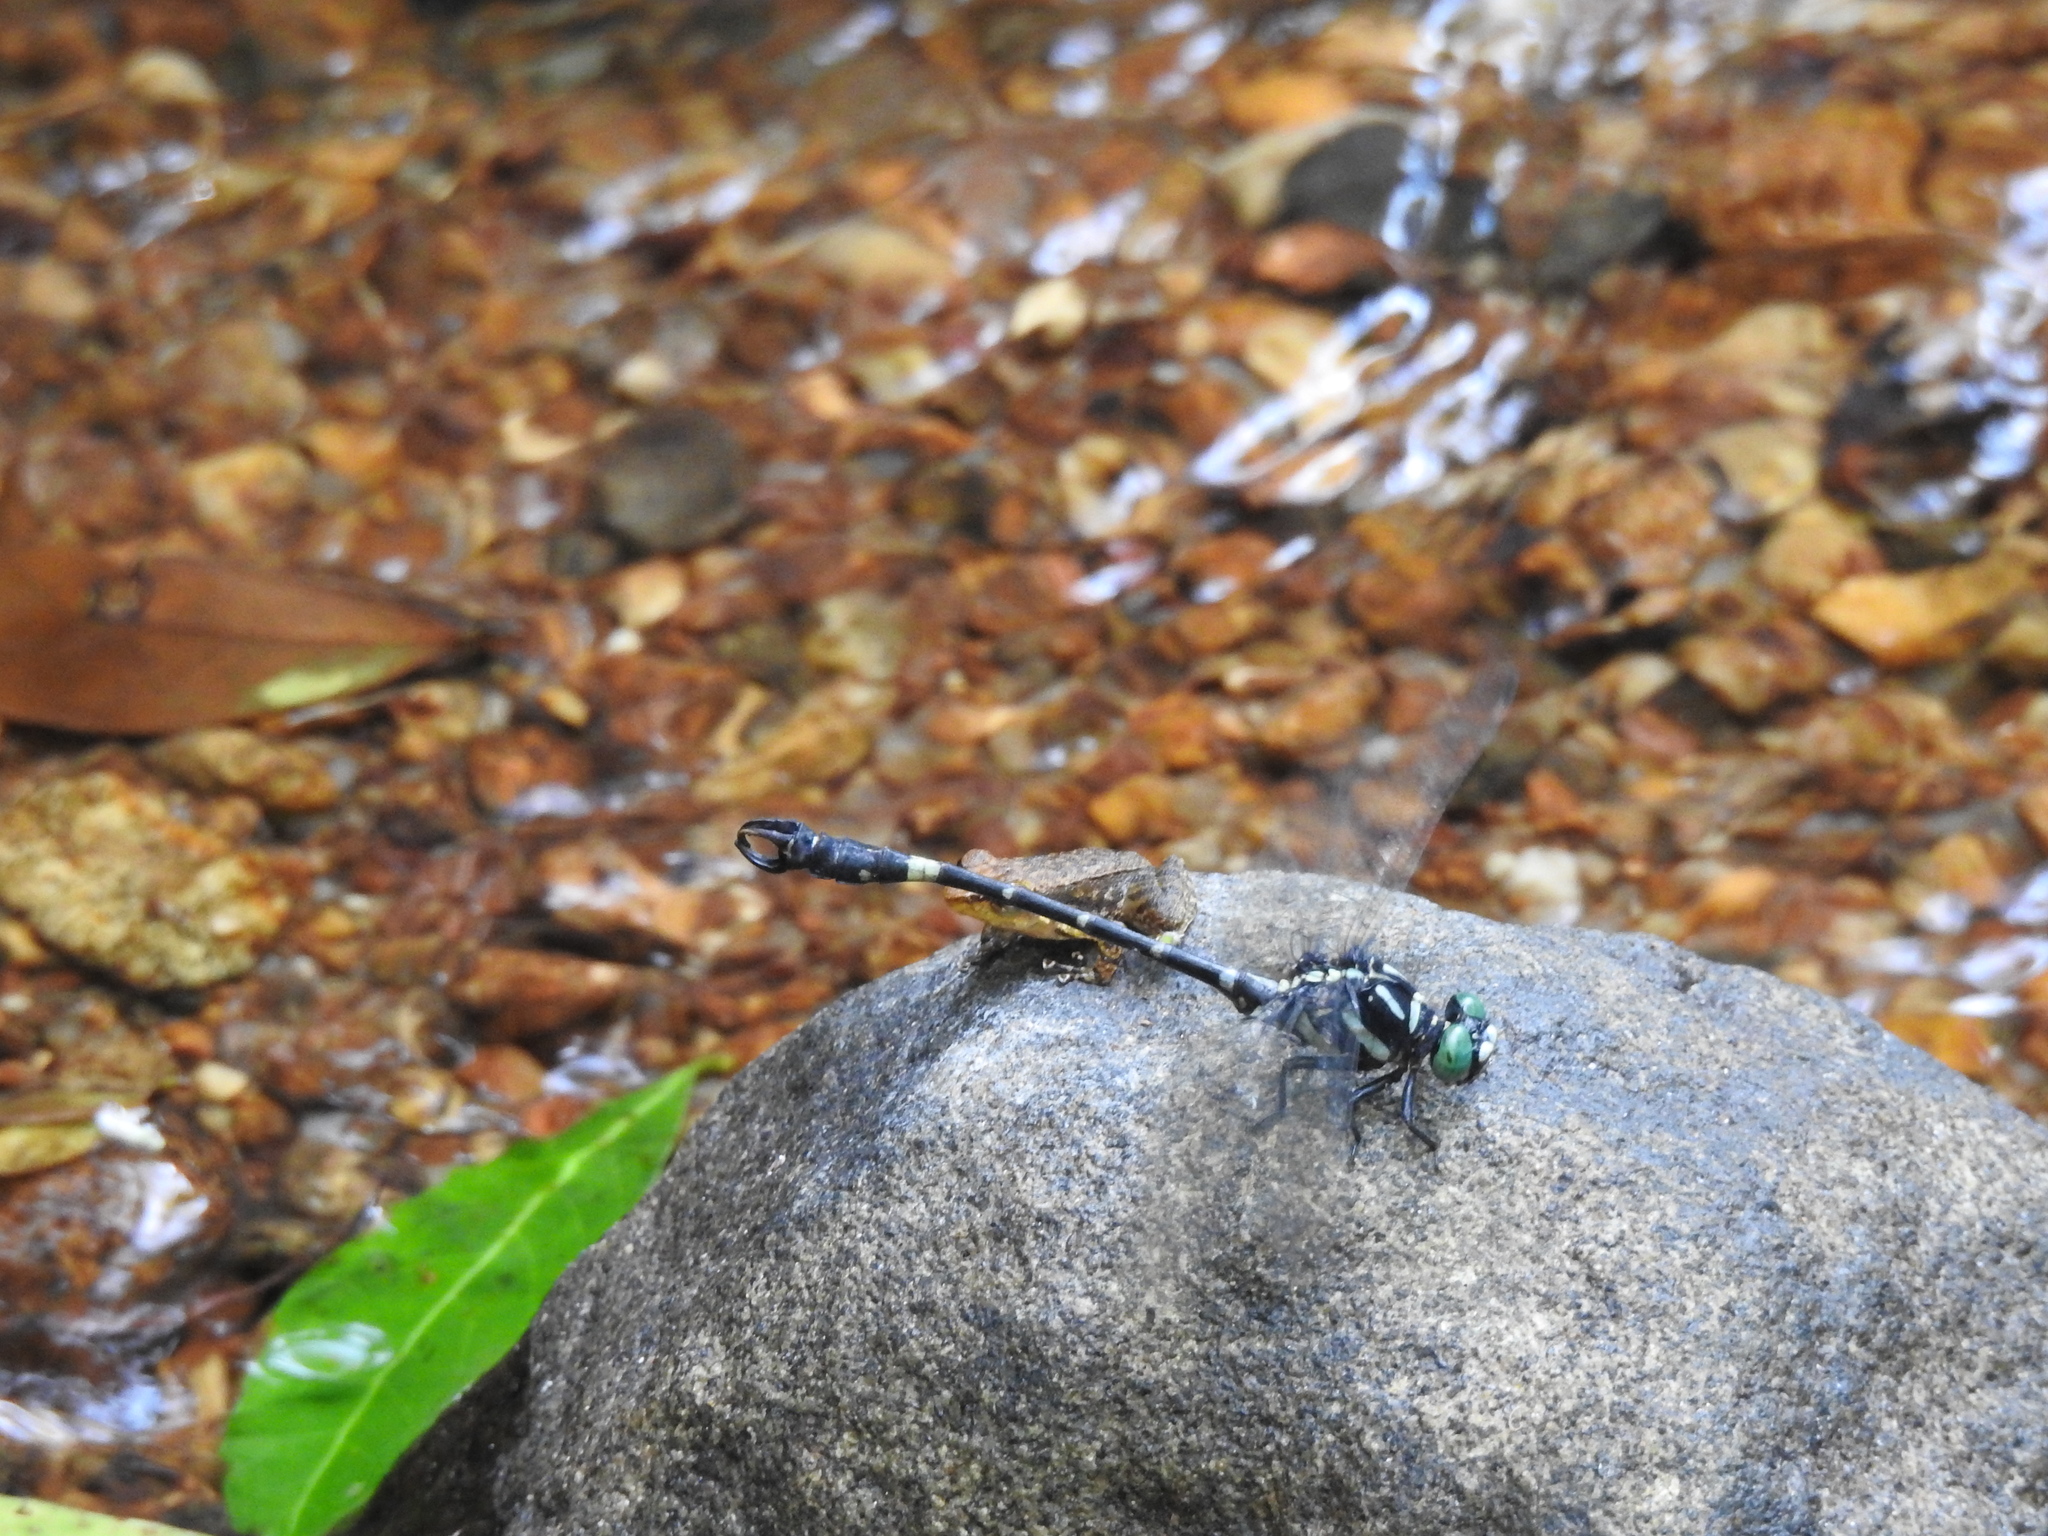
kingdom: Animalia
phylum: Arthropoda
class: Insecta
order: Odonata
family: Gomphidae
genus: Lamelligomphus
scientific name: Lamelligomphus nilgiriensis
